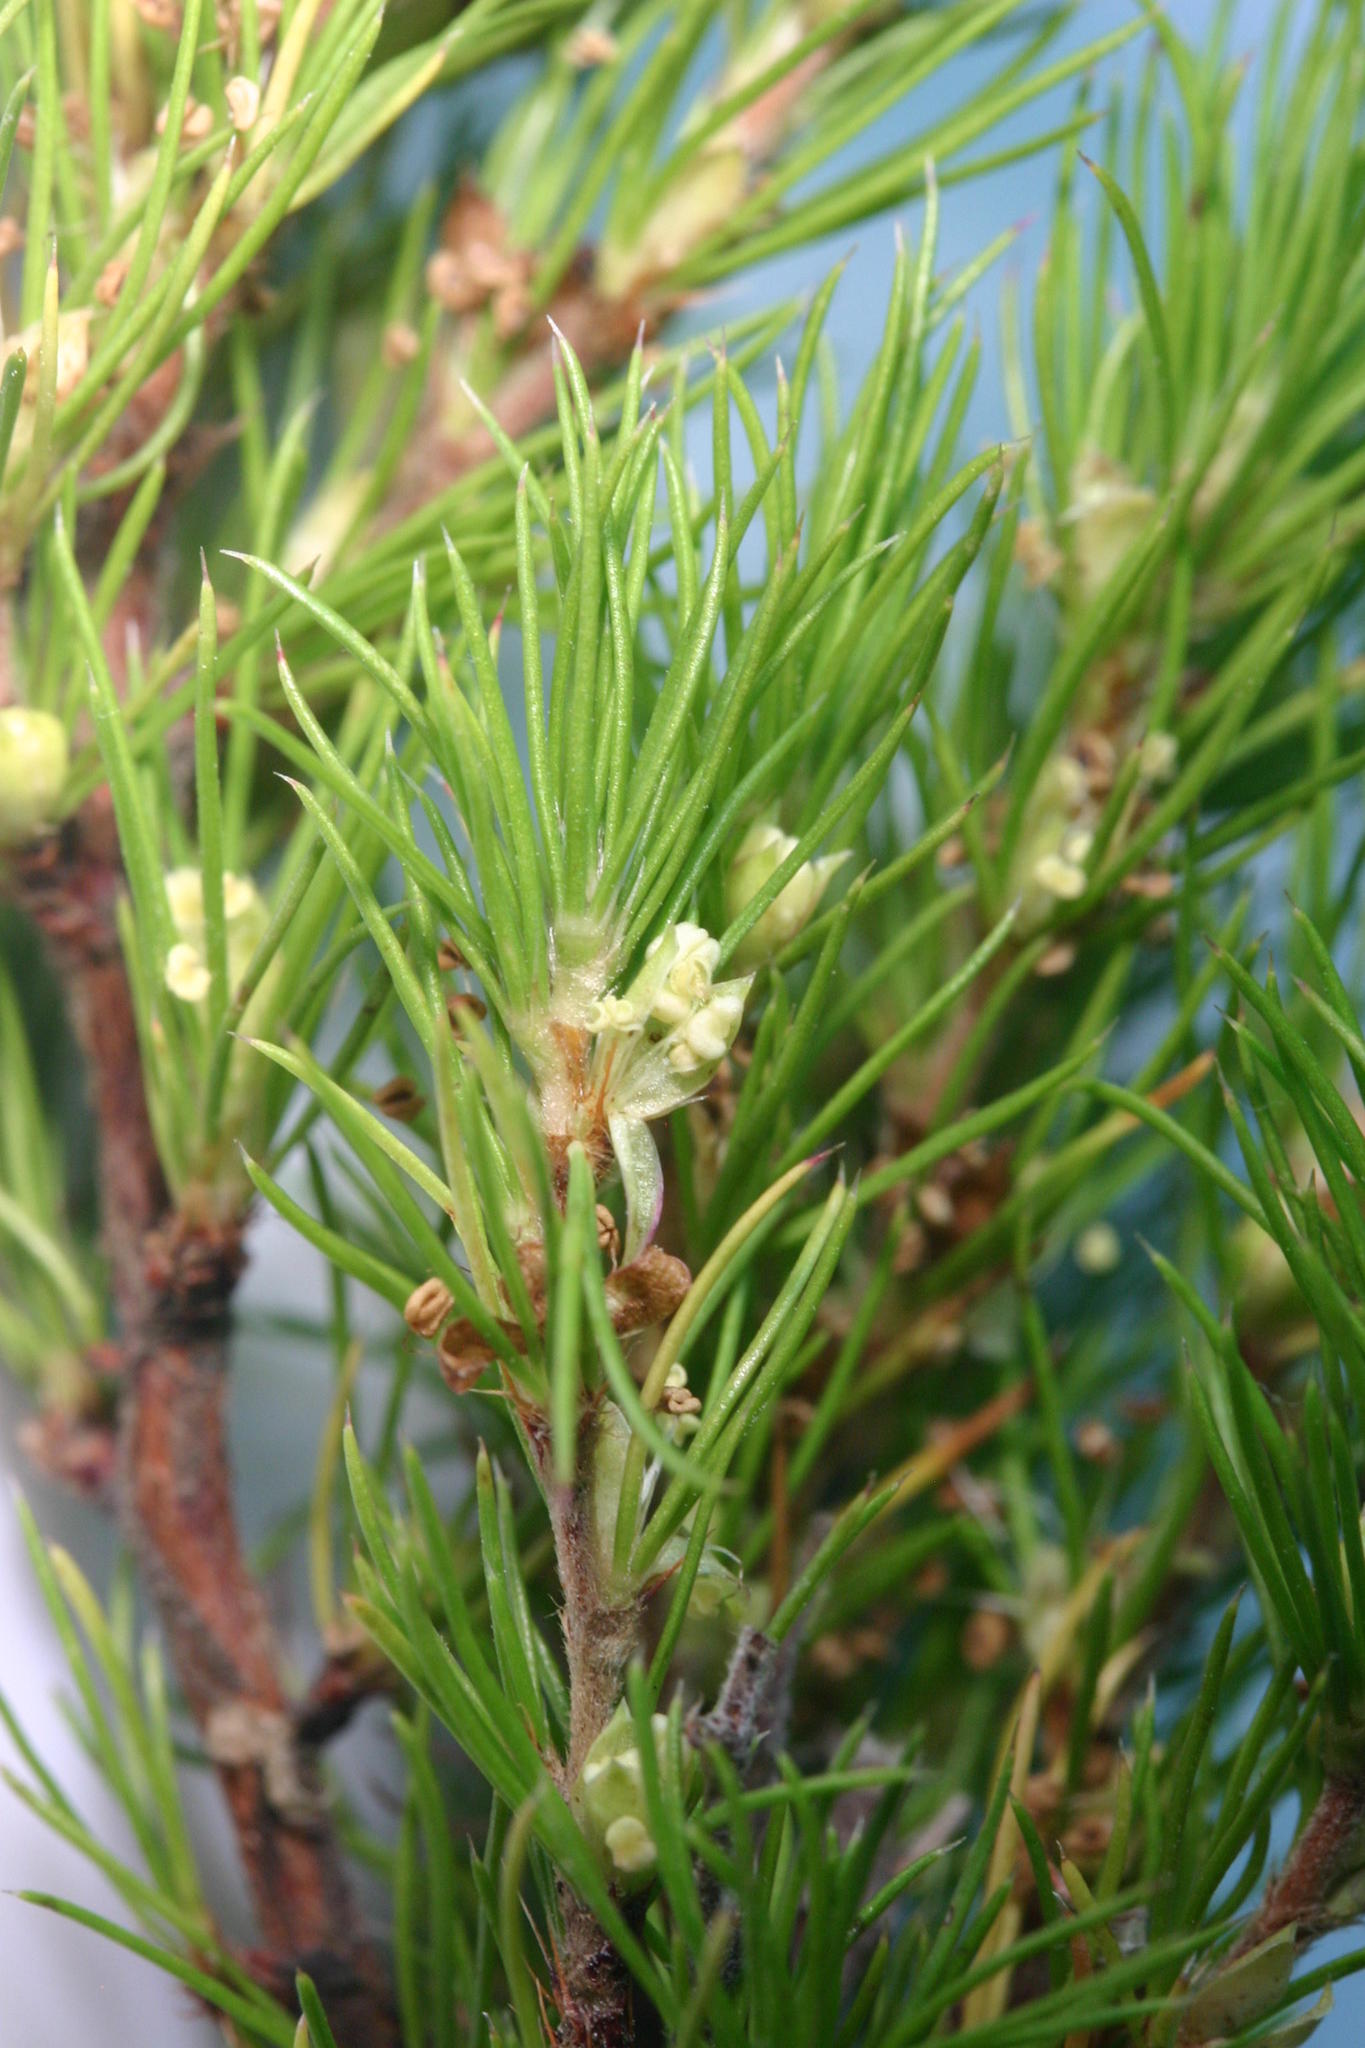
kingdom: Plantae
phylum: Tracheophyta
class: Magnoliopsida
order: Rosales
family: Rosaceae
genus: Cliffortia
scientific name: Cliffortia exilifolia
